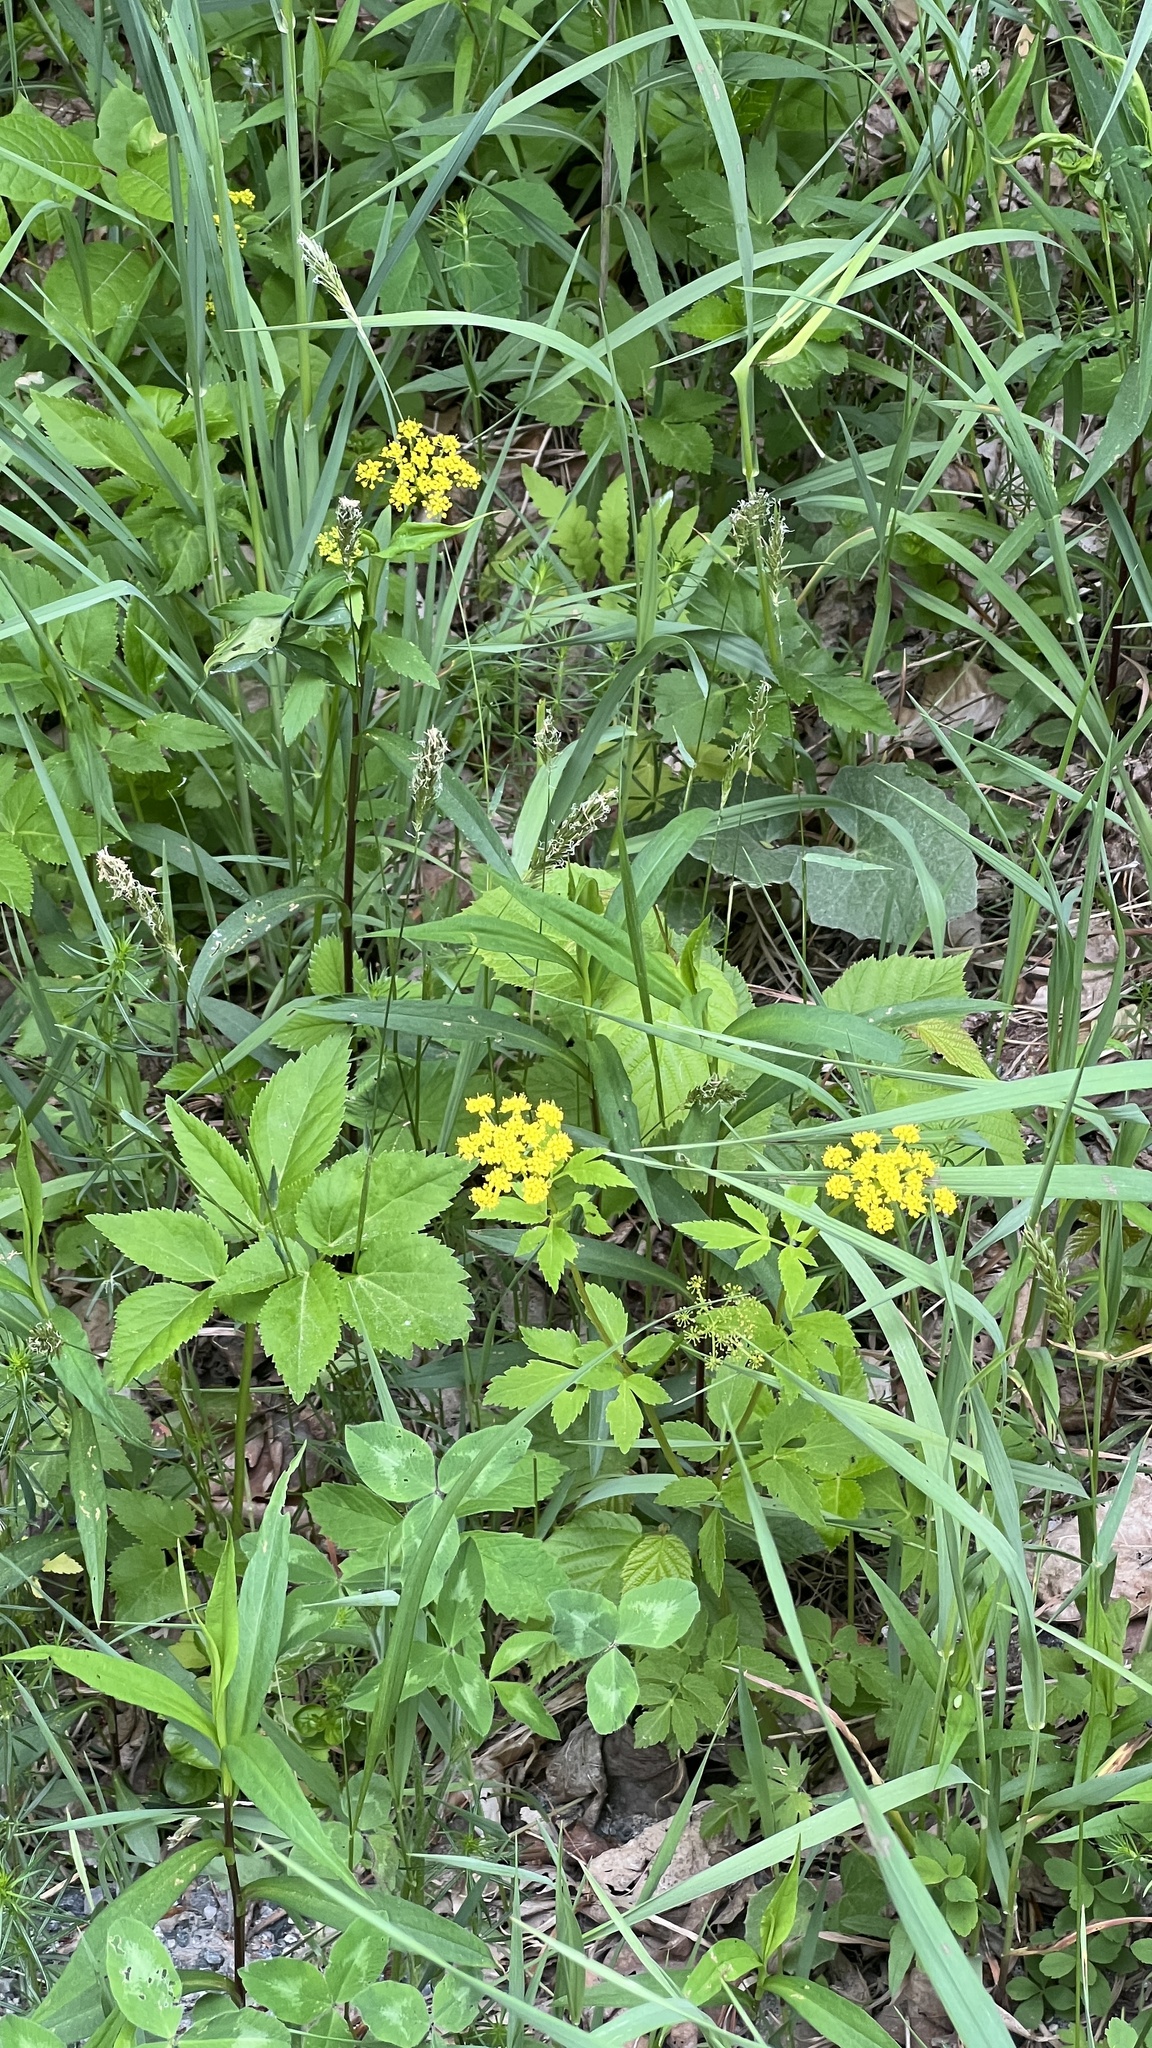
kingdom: Plantae
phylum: Tracheophyta
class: Magnoliopsida
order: Apiales
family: Apiaceae
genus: Zizia
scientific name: Zizia aurea
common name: Golden alexanders
